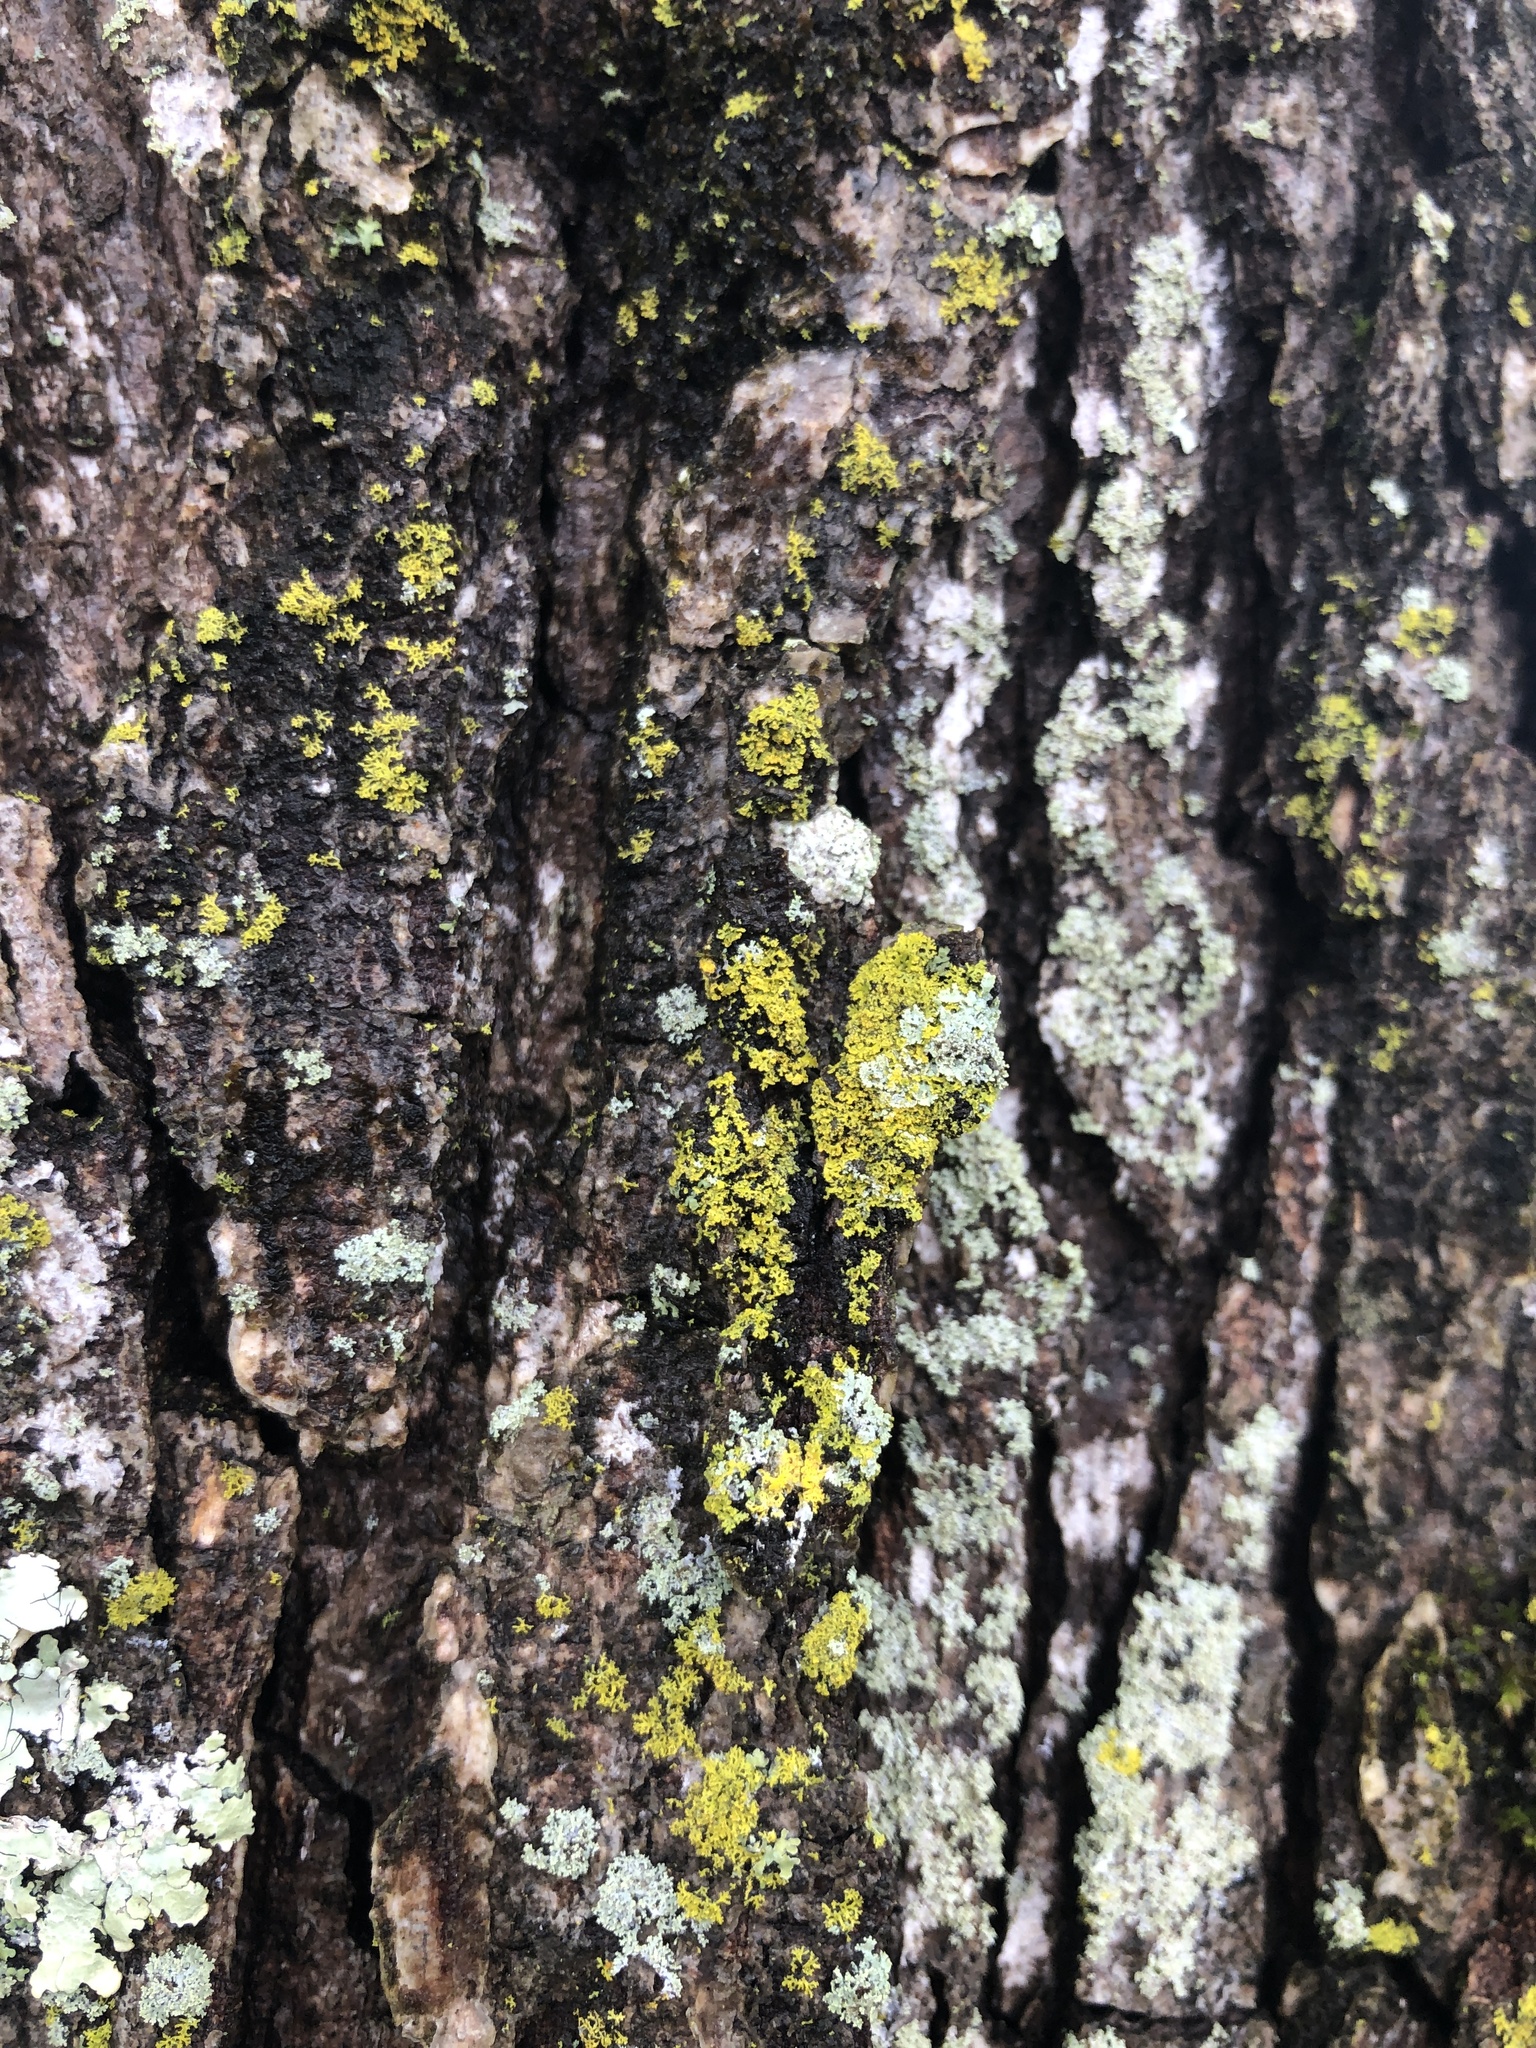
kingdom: Fungi
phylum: Ascomycota
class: Candelariomycetes
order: Candelariales
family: Candelariaceae
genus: Candelaria
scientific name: Candelaria concolor
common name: Candleflame lichen
